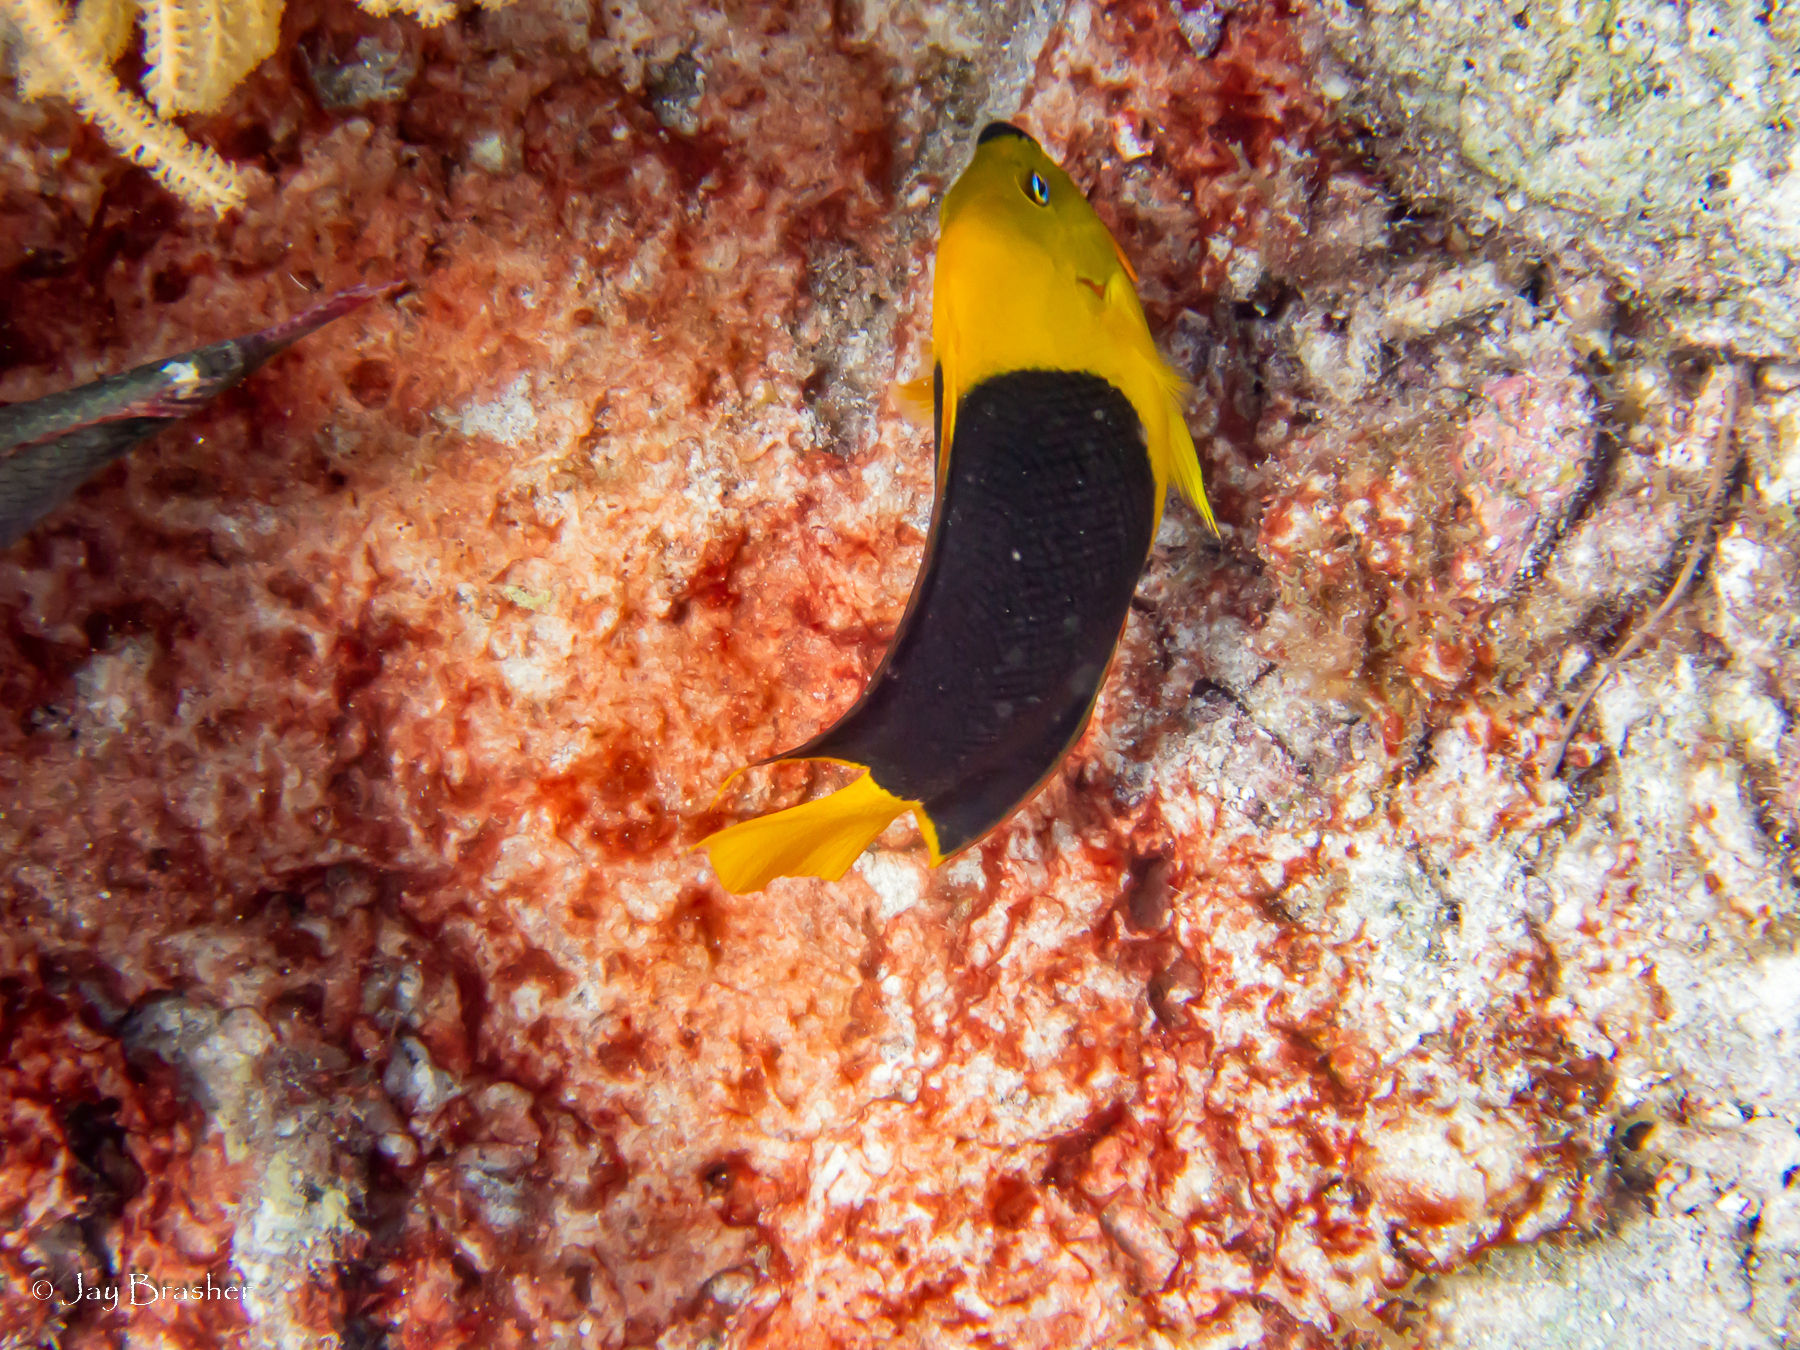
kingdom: Animalia
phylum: Chordata
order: Perciformes
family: Pomacanthidae
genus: Holacanthus
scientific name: Holacanthus tricolor
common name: Rock beauty
